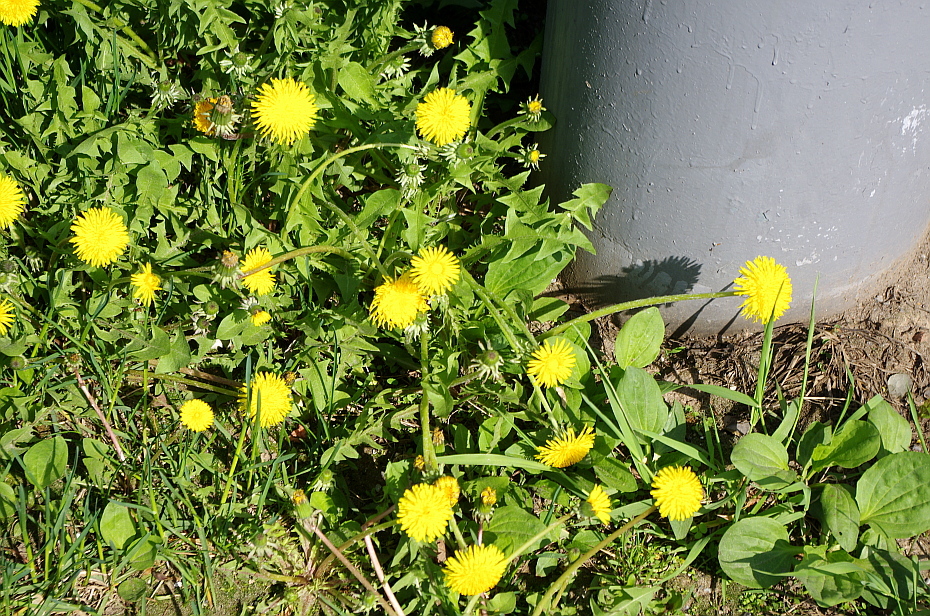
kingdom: Plantae
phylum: Tracheophyta
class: Magnoliopsida
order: Asterales
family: Asteraceae
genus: Taraxacum
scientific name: Taraxacum officinale
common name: Common dandelion
